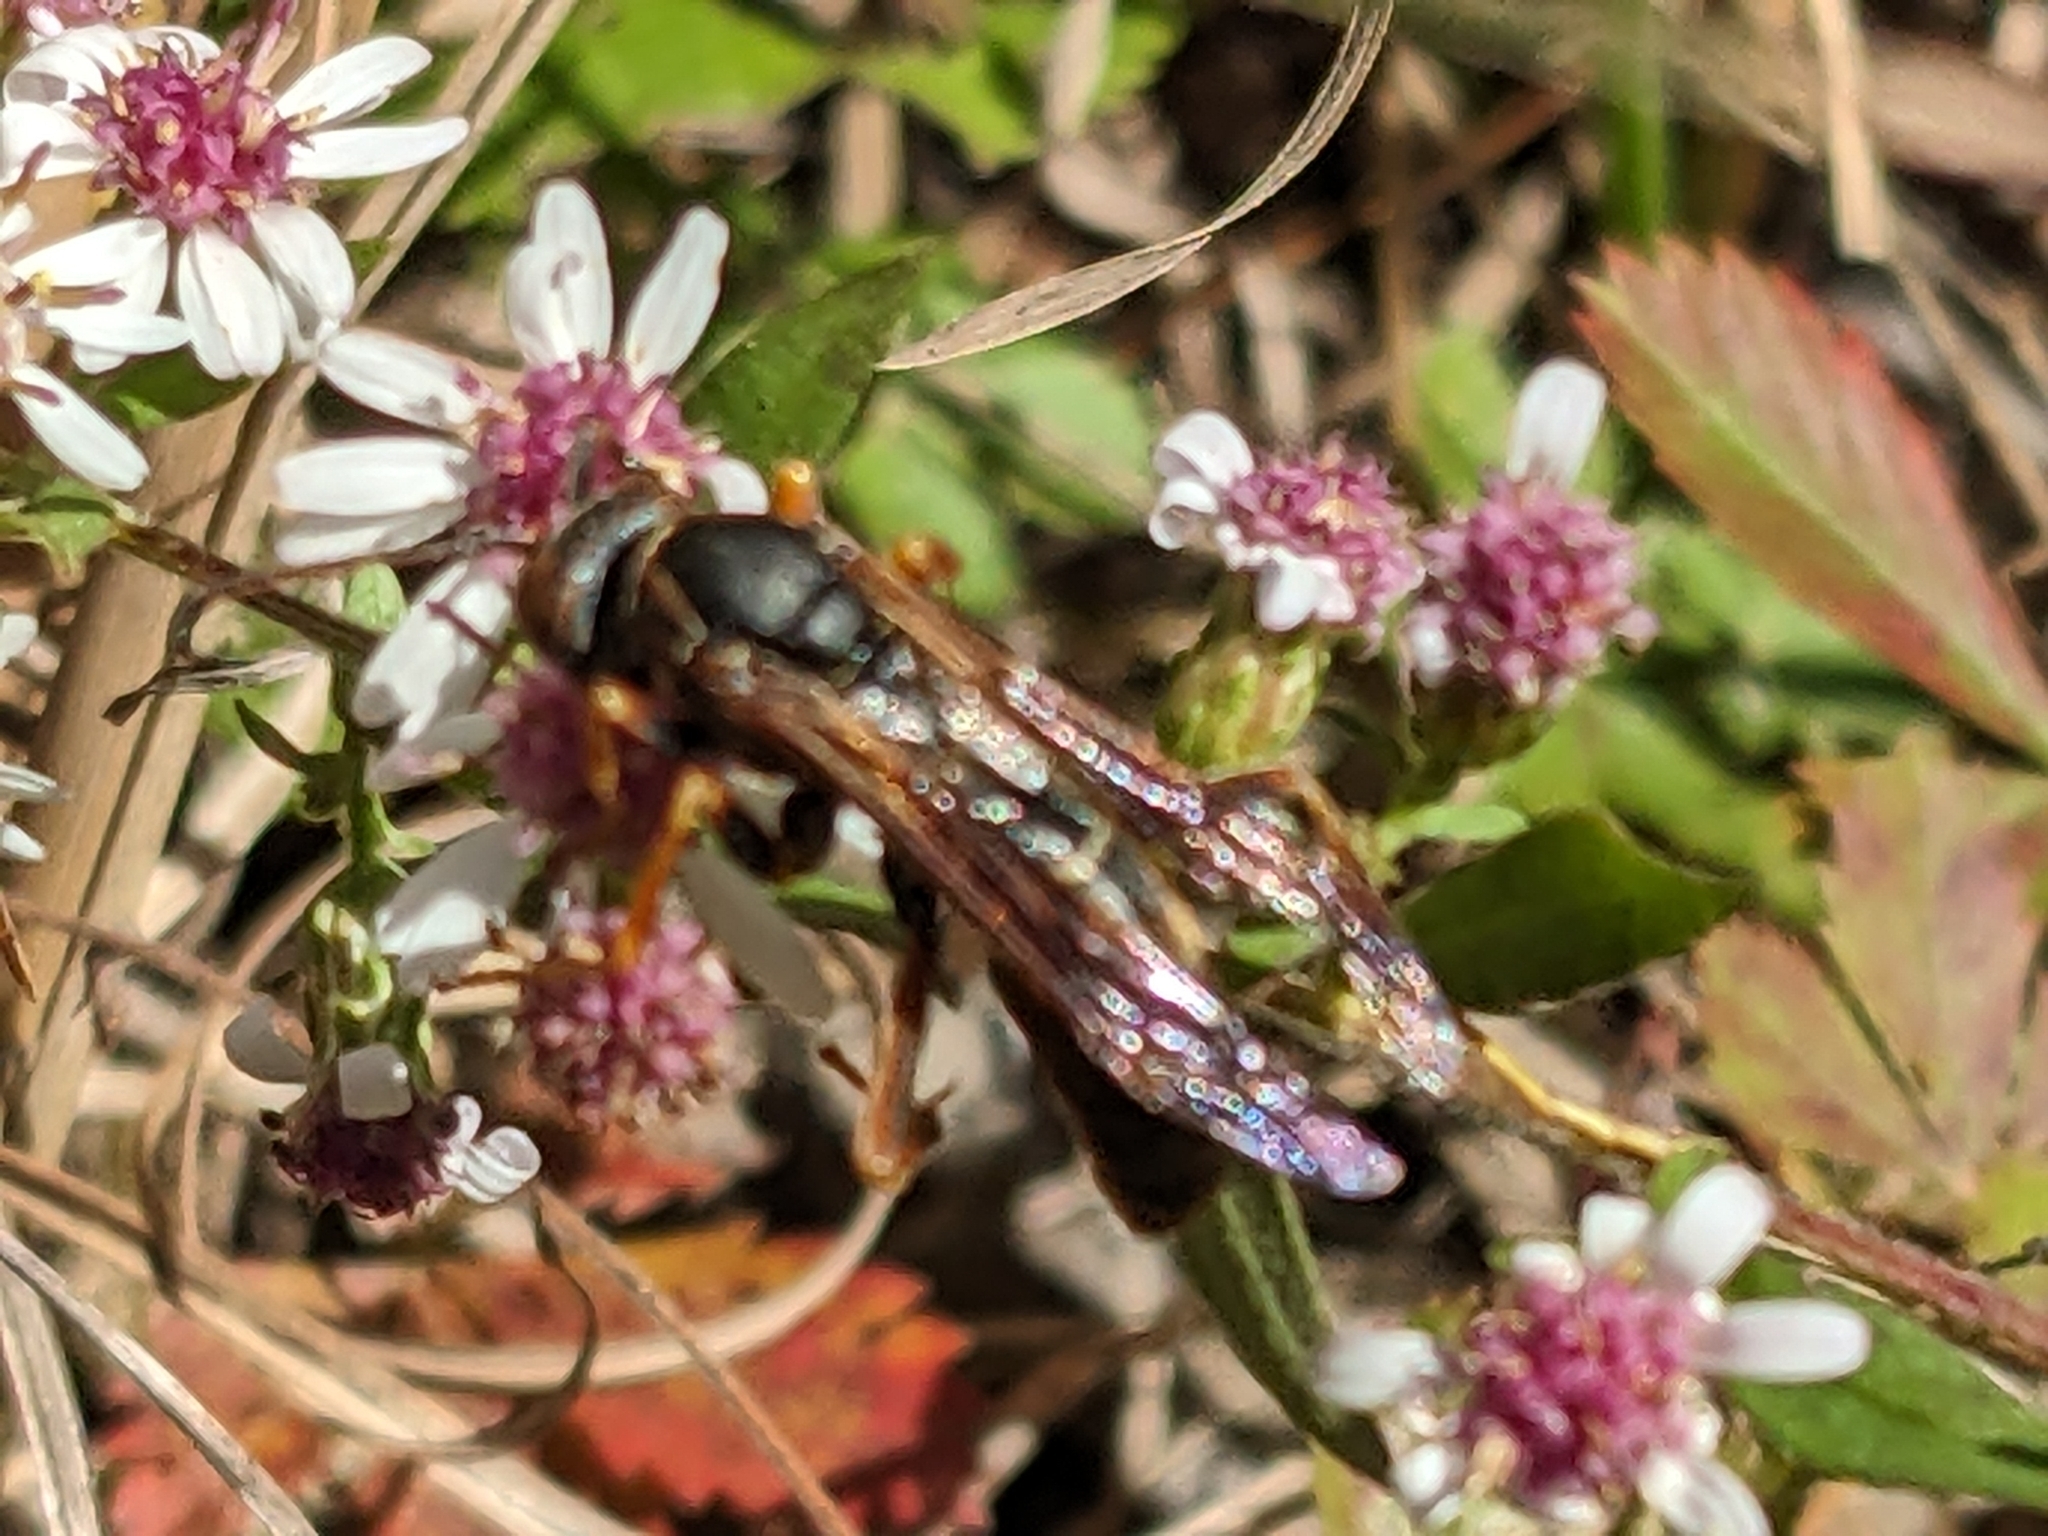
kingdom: Animalia
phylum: Arthropoda
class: Insecta
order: Hymenoptera
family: Eumenidae
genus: Polistes
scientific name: Polistes fuscatus
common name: Dark paper wasp
